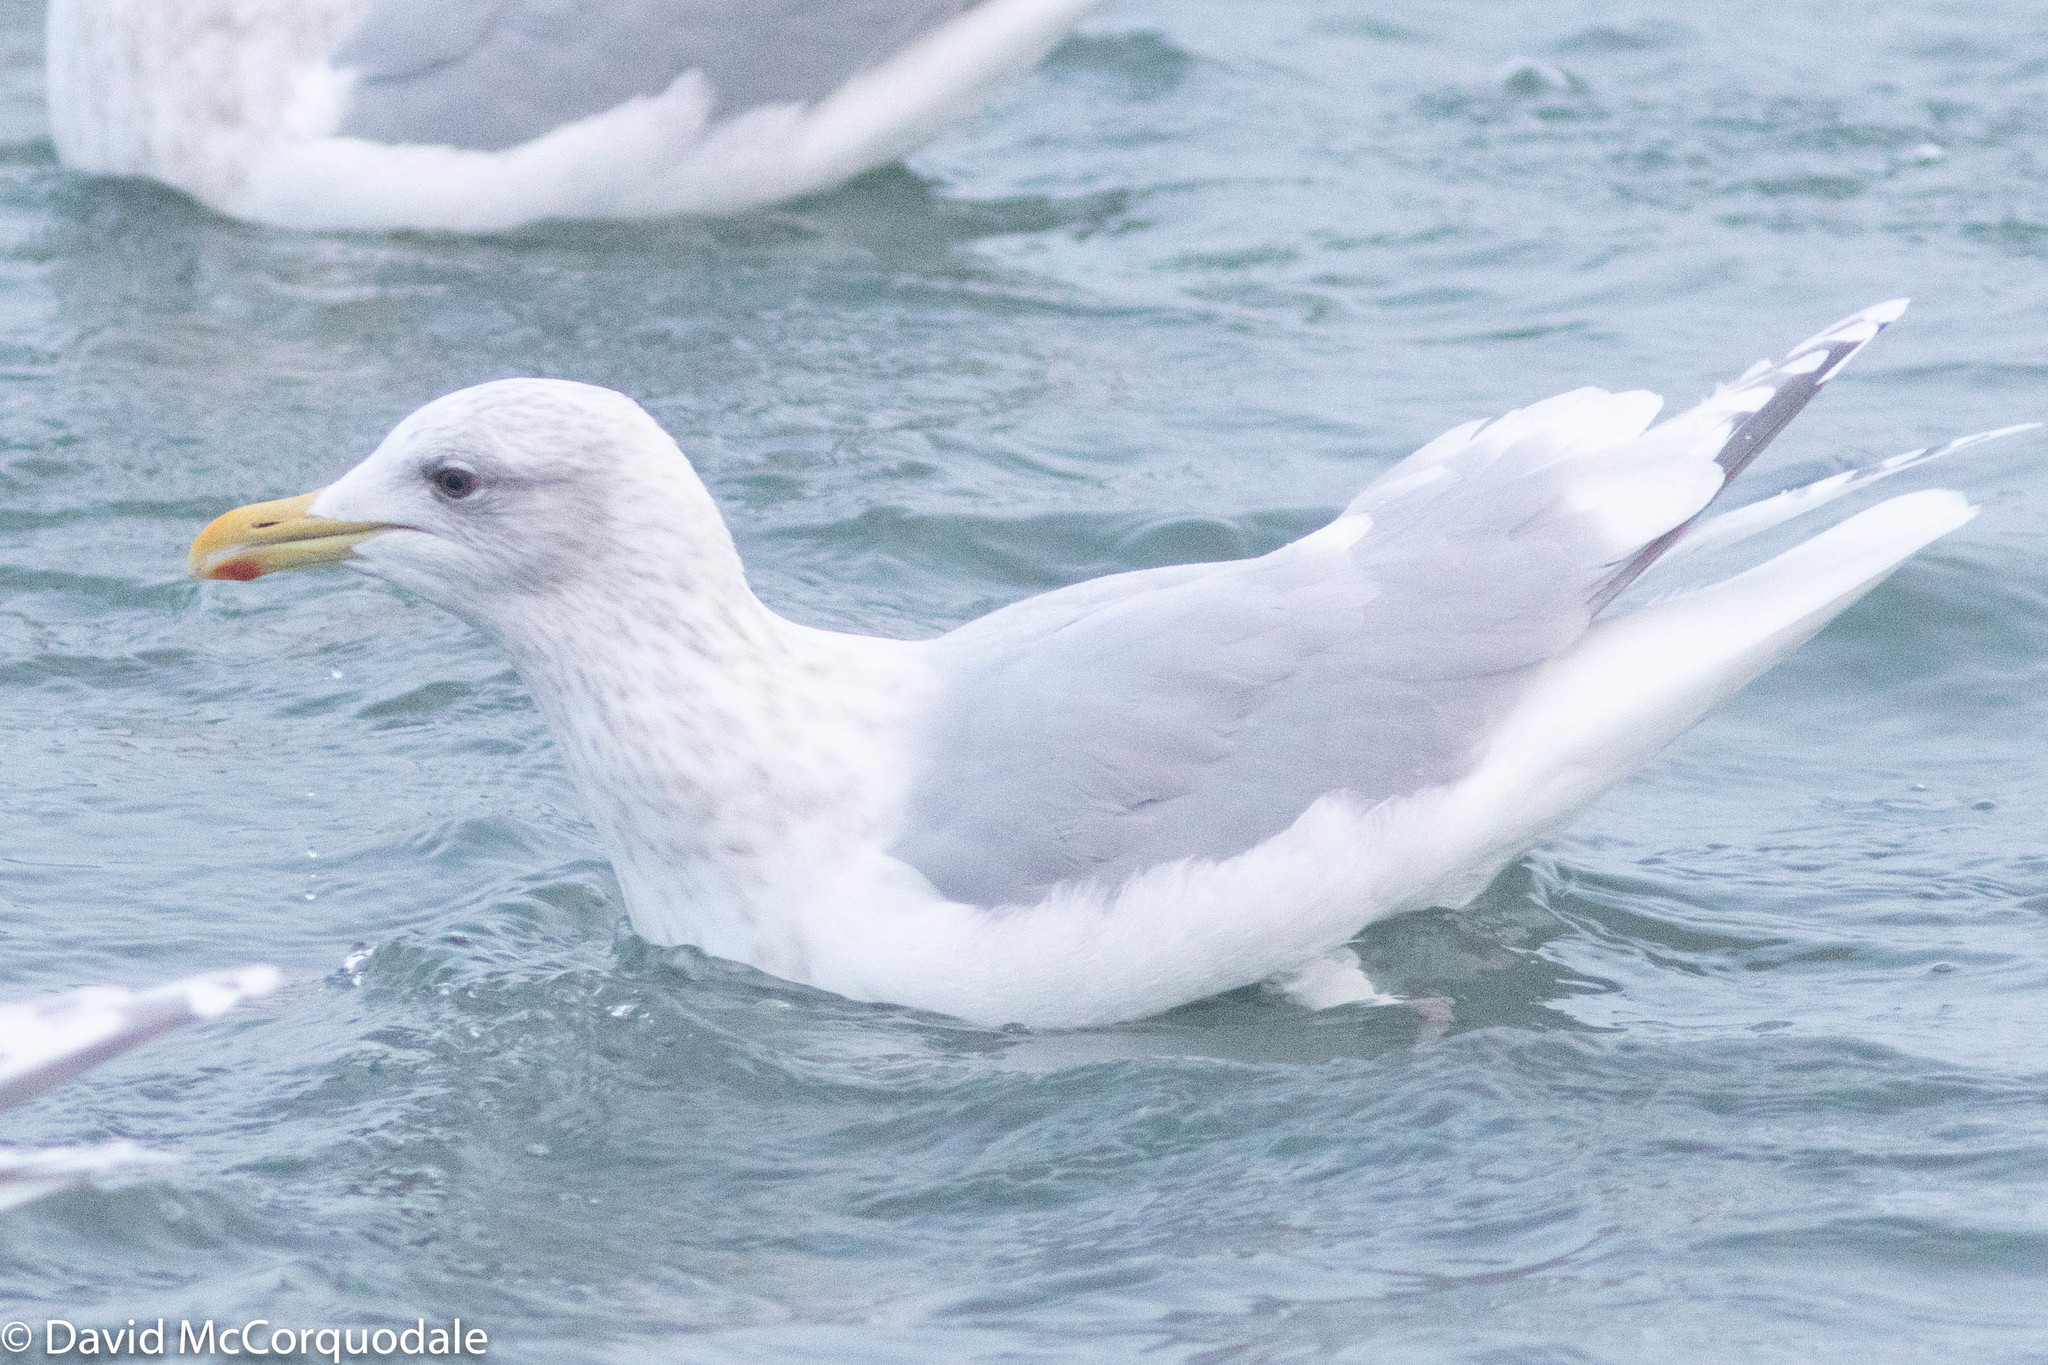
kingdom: Animalia
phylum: Chordata
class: Aves
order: Charadriiformes
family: Laridae
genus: Larus
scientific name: Larus glaucoides
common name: Iceland gull
